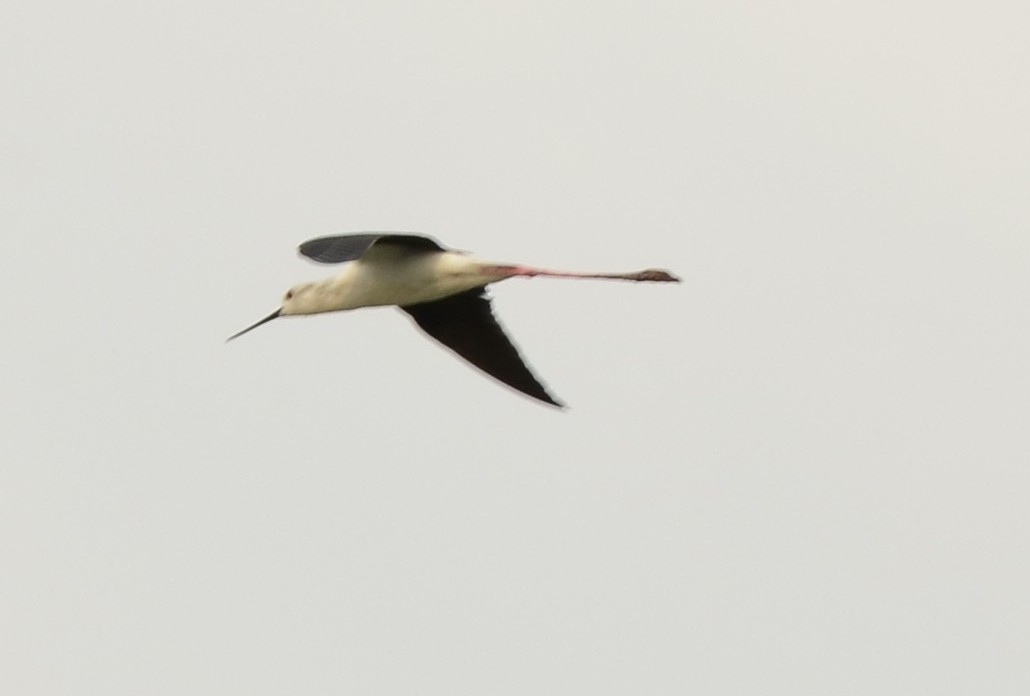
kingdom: Animalia
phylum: Chordata
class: Aves
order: Charadriiformes
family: Recurvirostridae
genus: Himantopus
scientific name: Himantopus himantopus
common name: Black-winged stilt
